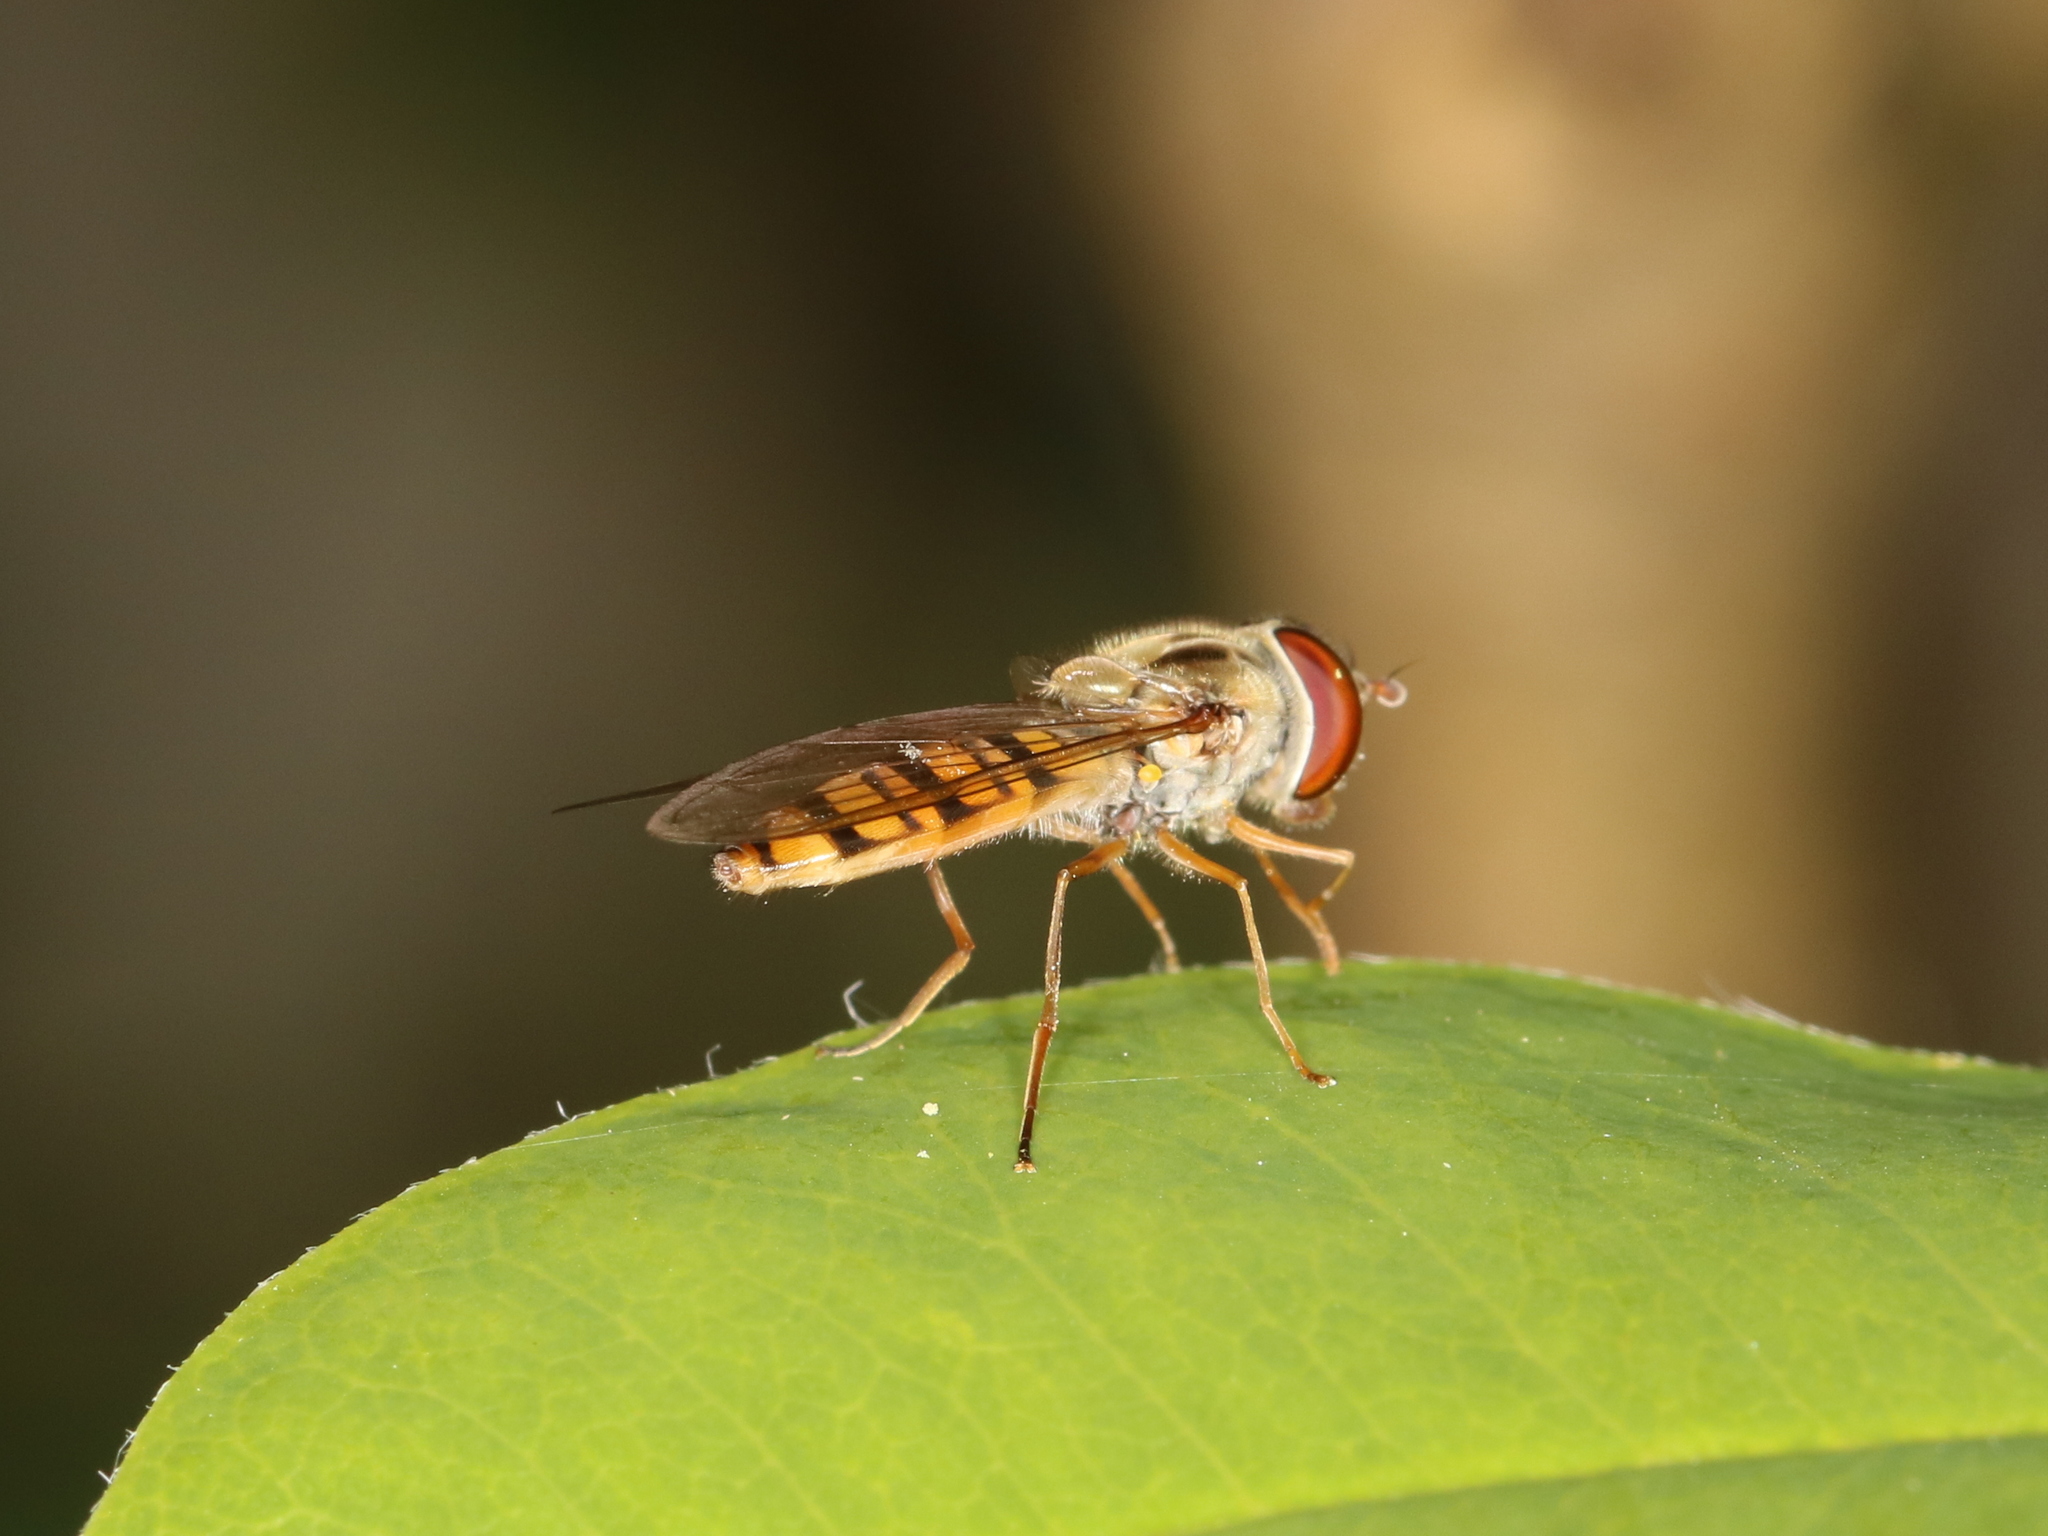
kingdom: Animalia
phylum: Arthropoda
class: Insecta
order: Diptera
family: Syrphidae
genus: Episyrphus
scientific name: Episyrphus balteatus
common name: Marmalade hoverfly
